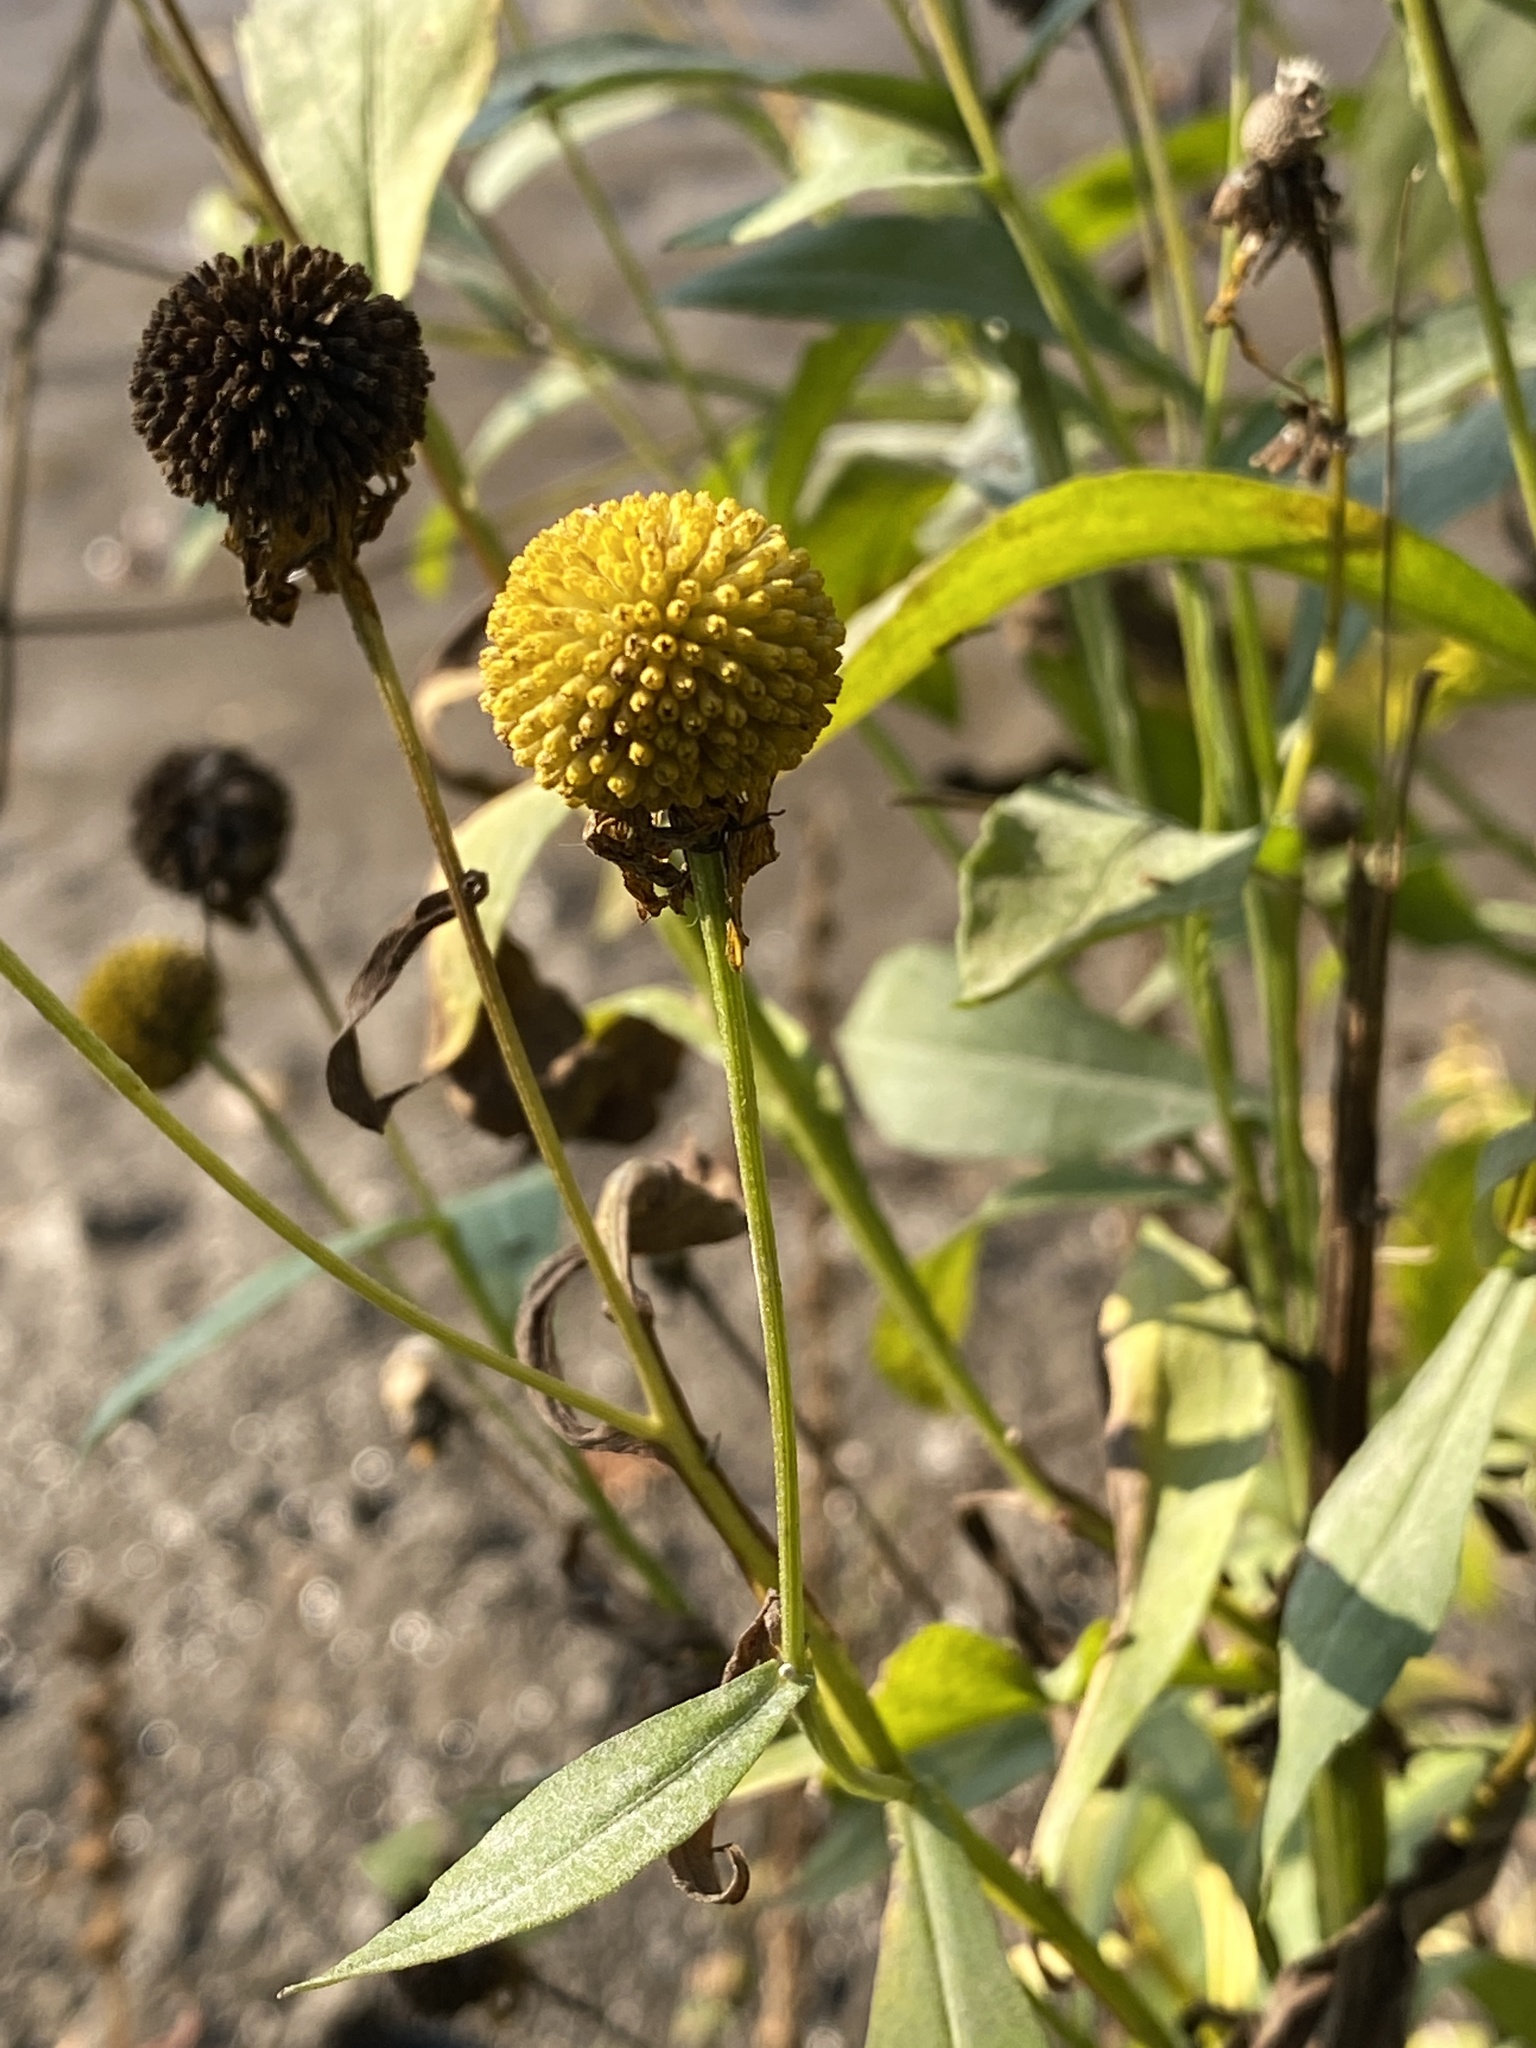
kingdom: Plantae
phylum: Tracheophyta
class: Magnoliopsida
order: Asterales
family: Asteraceae
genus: Helenium
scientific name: Helenium autumnale
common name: Sneezeweed
